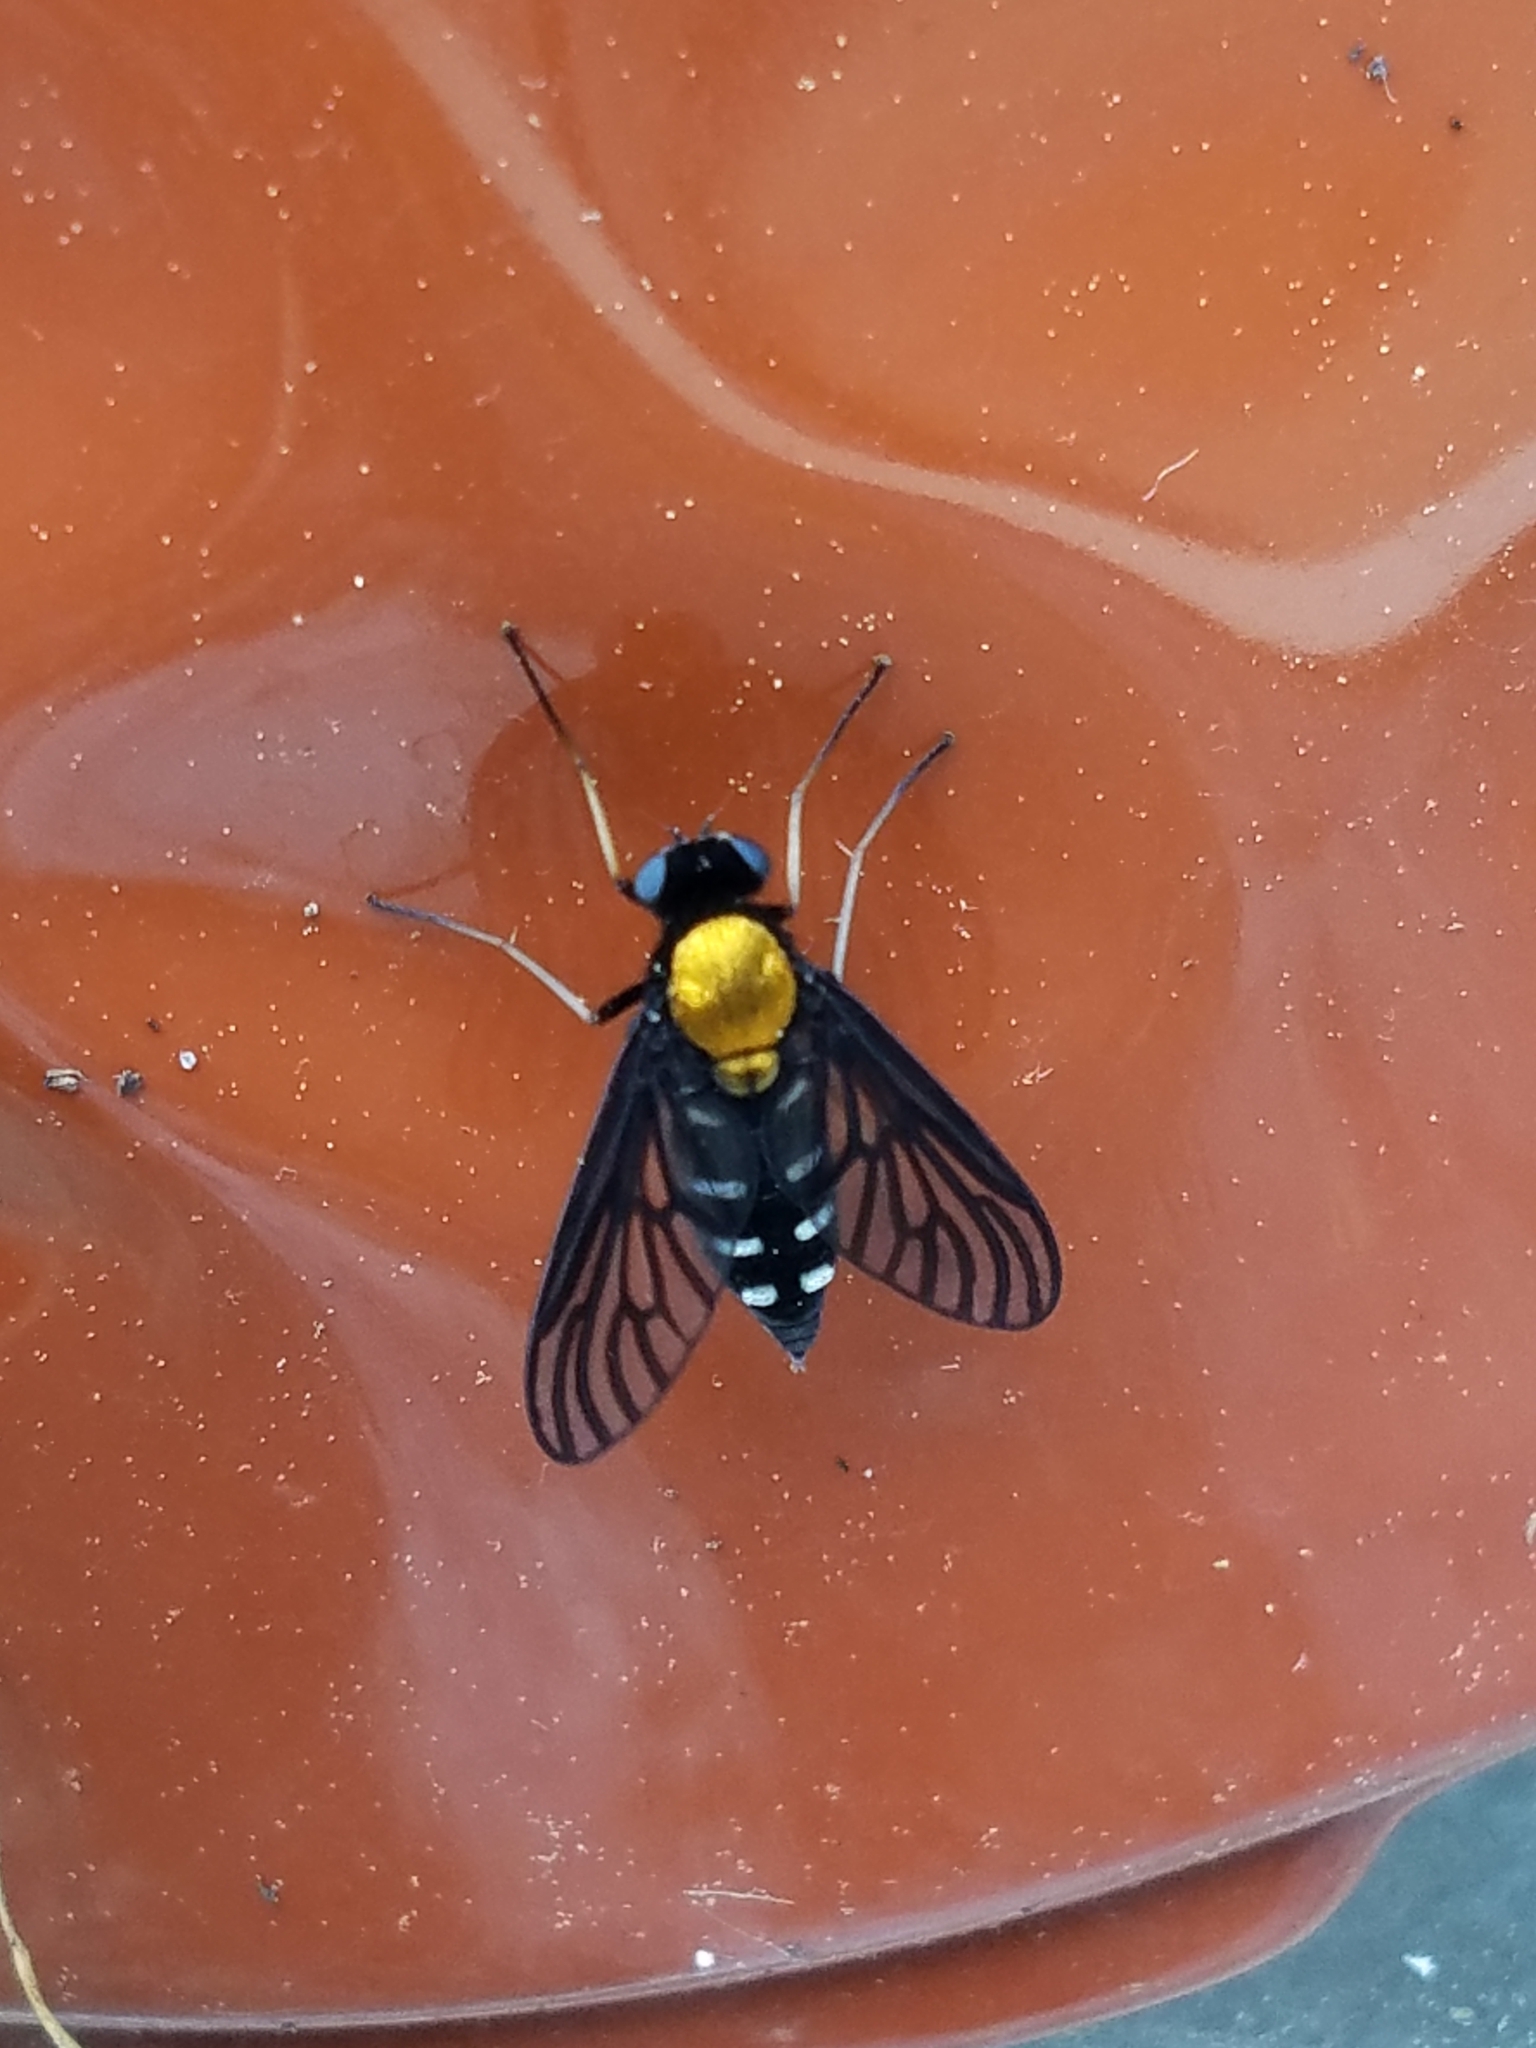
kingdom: Animalia
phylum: Arthropoda
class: Insecta
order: Diptera
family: Rhagionidae
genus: Chrysopilus
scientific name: Chrysopilus thoracicus
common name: Golden-backed snipe fly
